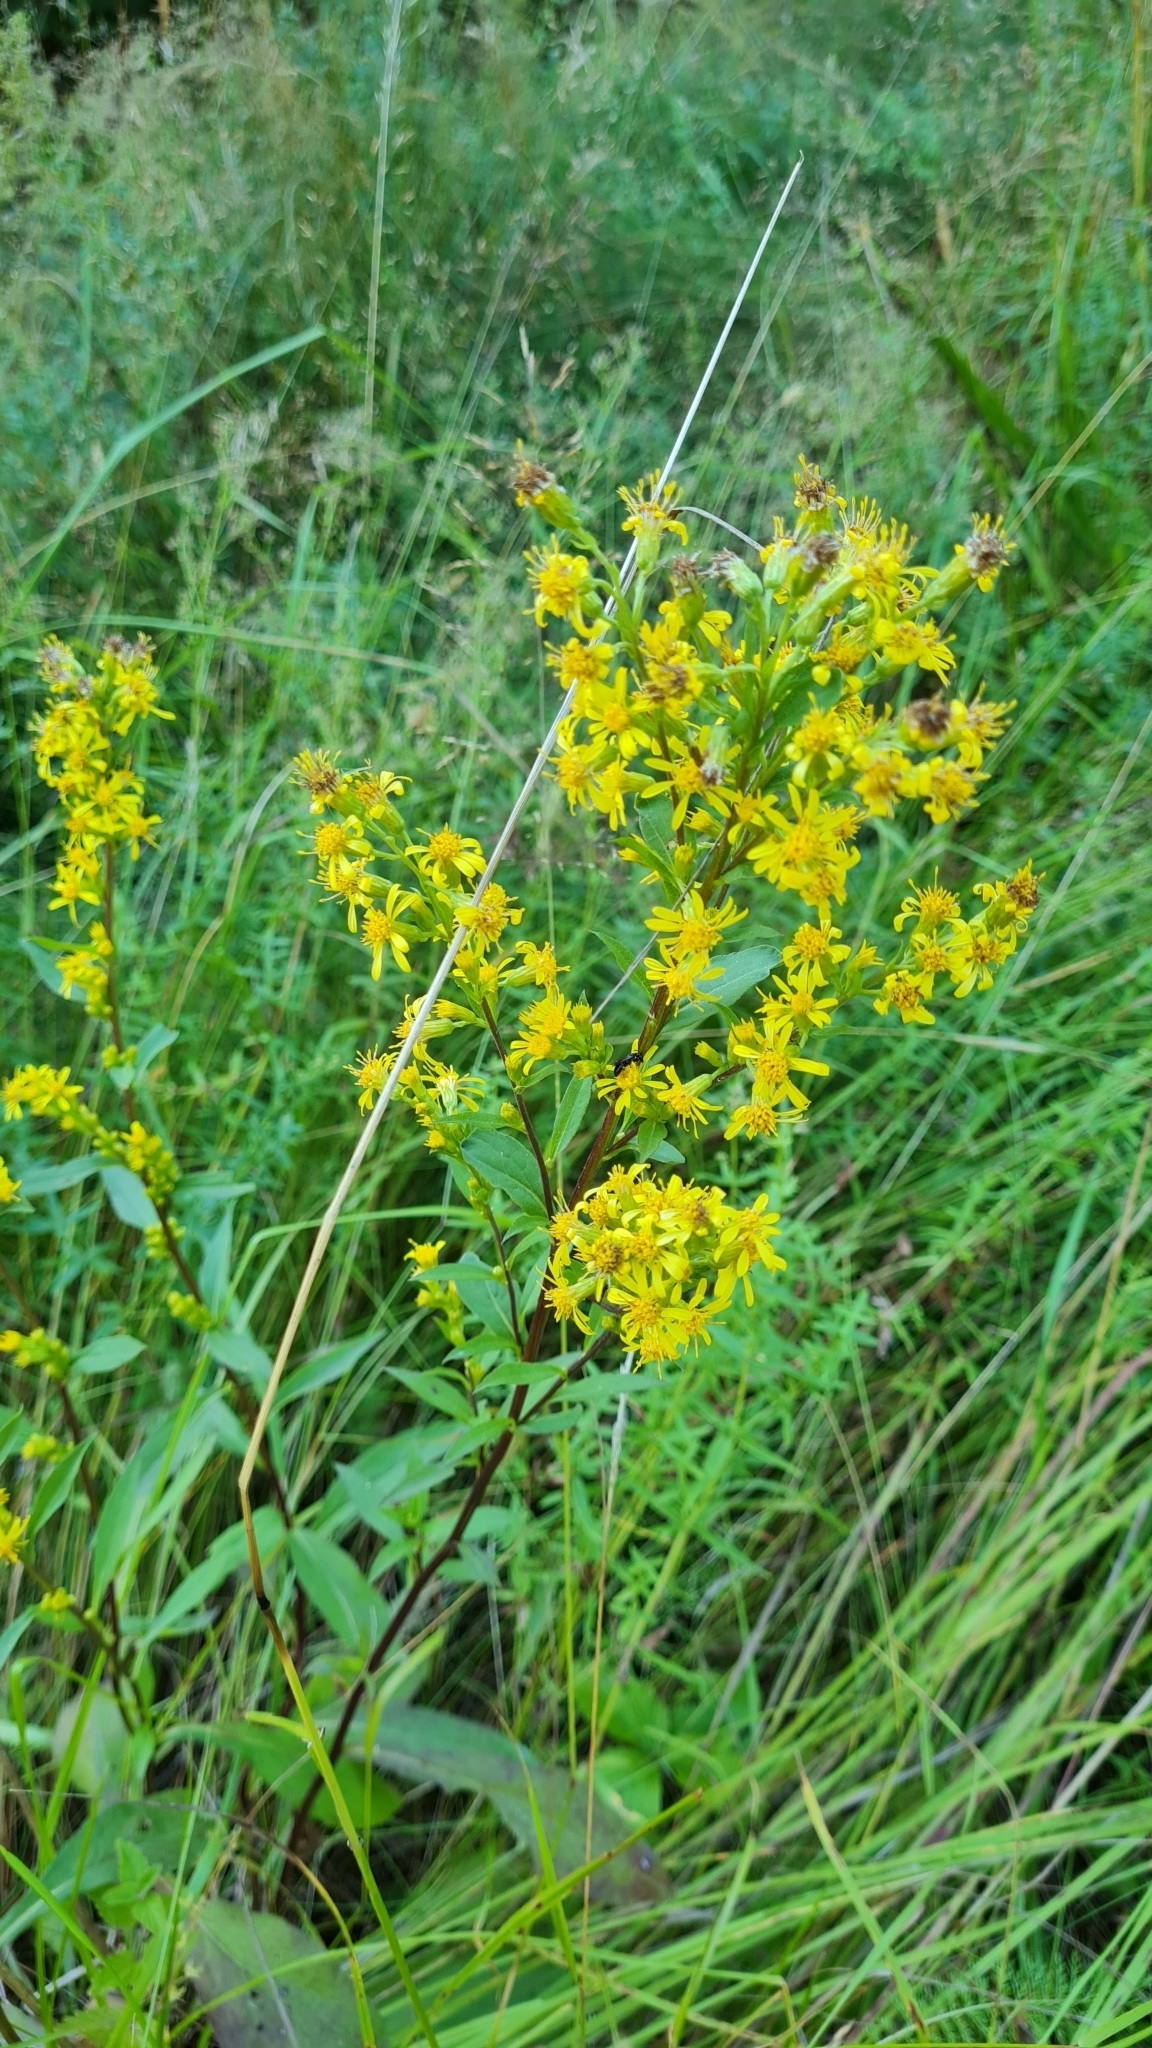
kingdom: Plantae
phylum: Tracheophyta
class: Magnoliopsida
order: Asterales
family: Asteraceae
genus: Solidago
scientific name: Solidago virgaurea
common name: Goldenrod
